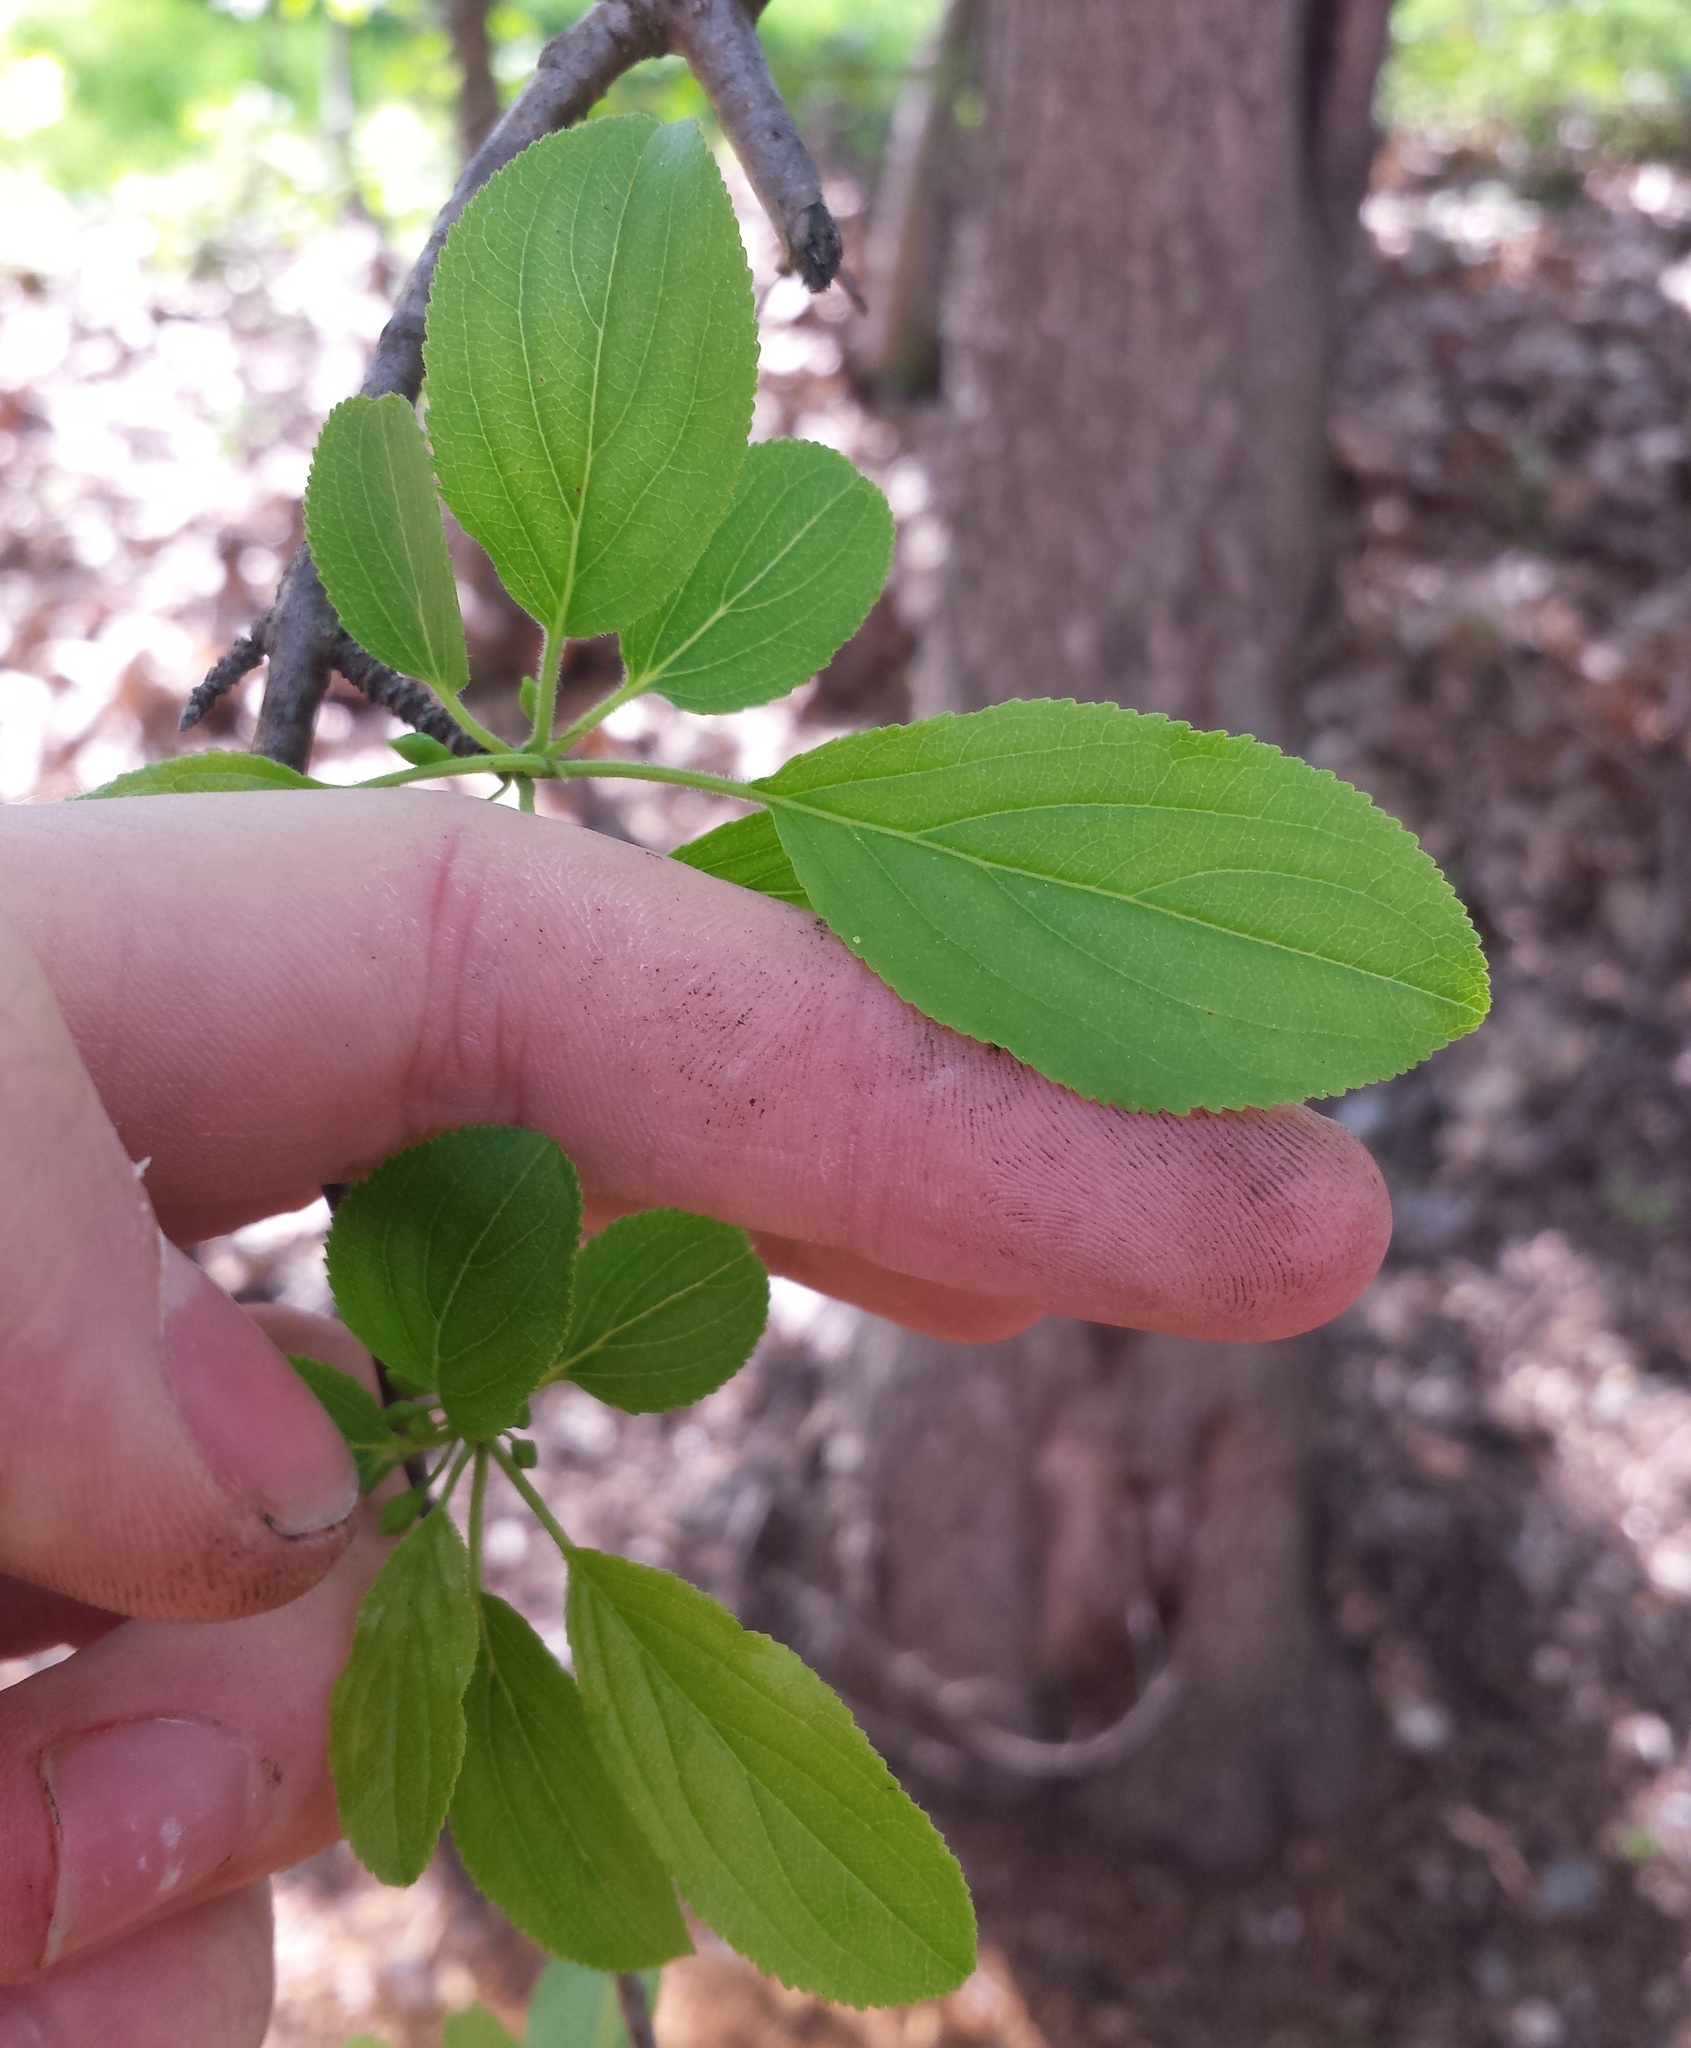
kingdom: Plantae
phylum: Tracheophyta
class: Magnoliopsida
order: Rosales
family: Rhamnaceae
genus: Rhamnus
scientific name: Rhamnus cathartica
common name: Common buckthorn
